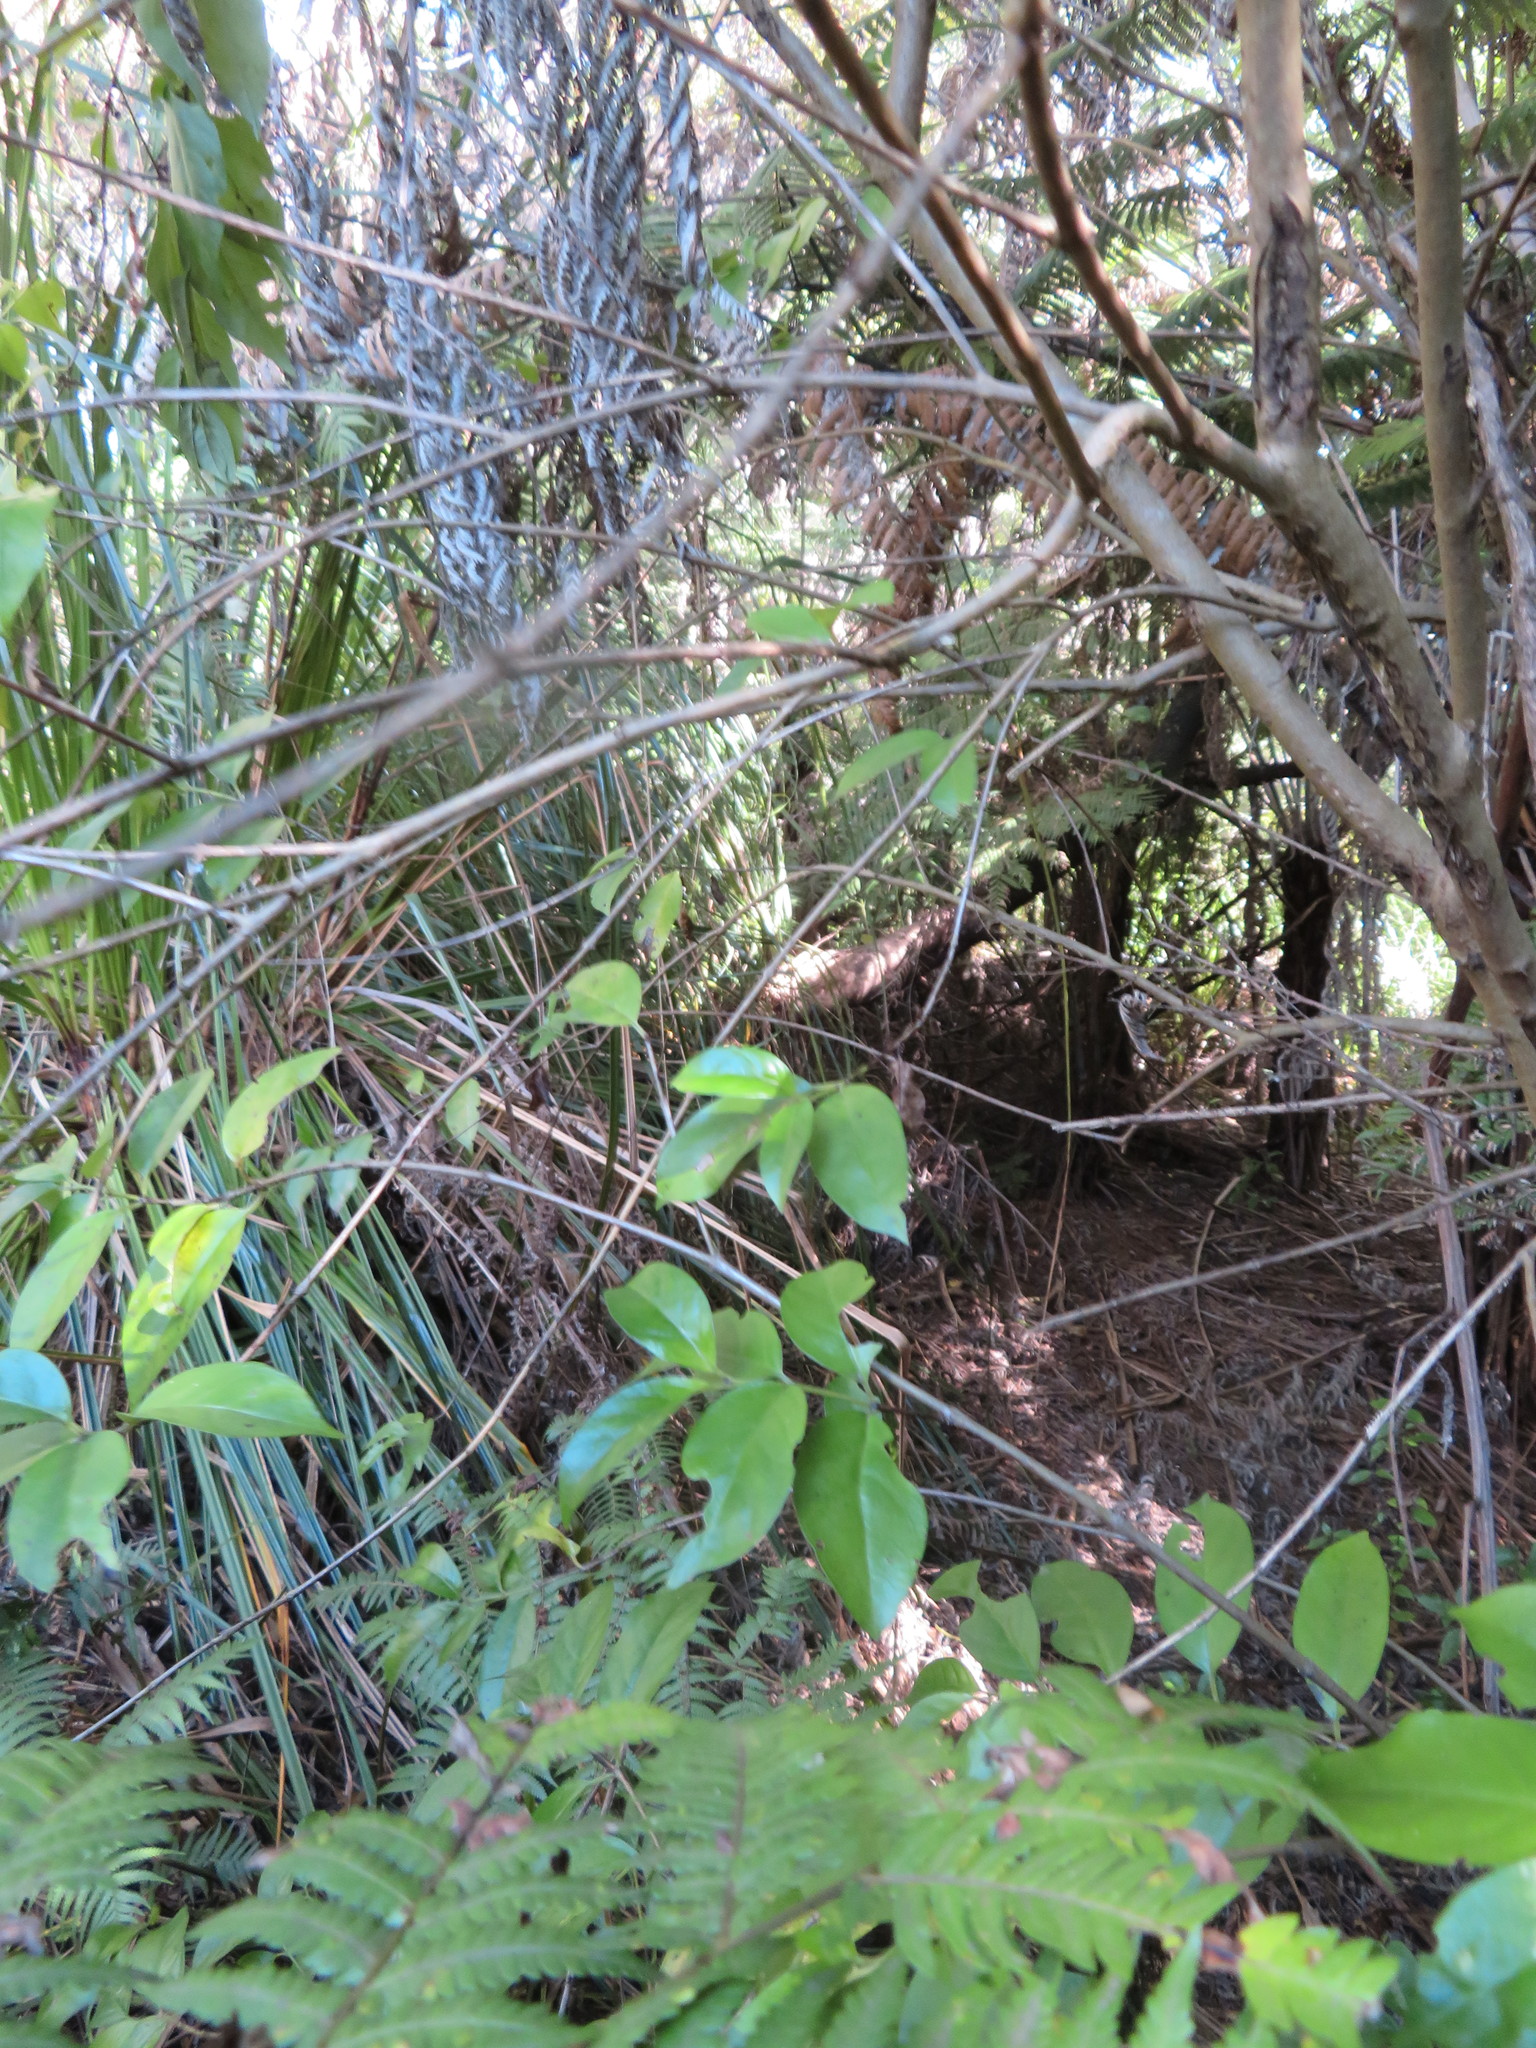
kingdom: Plantae
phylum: Tracheophyta
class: Magnoliopsida
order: Gentianales
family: Loganiaceae
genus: Geniostoma
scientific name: Geniostoma ligustrifolium
